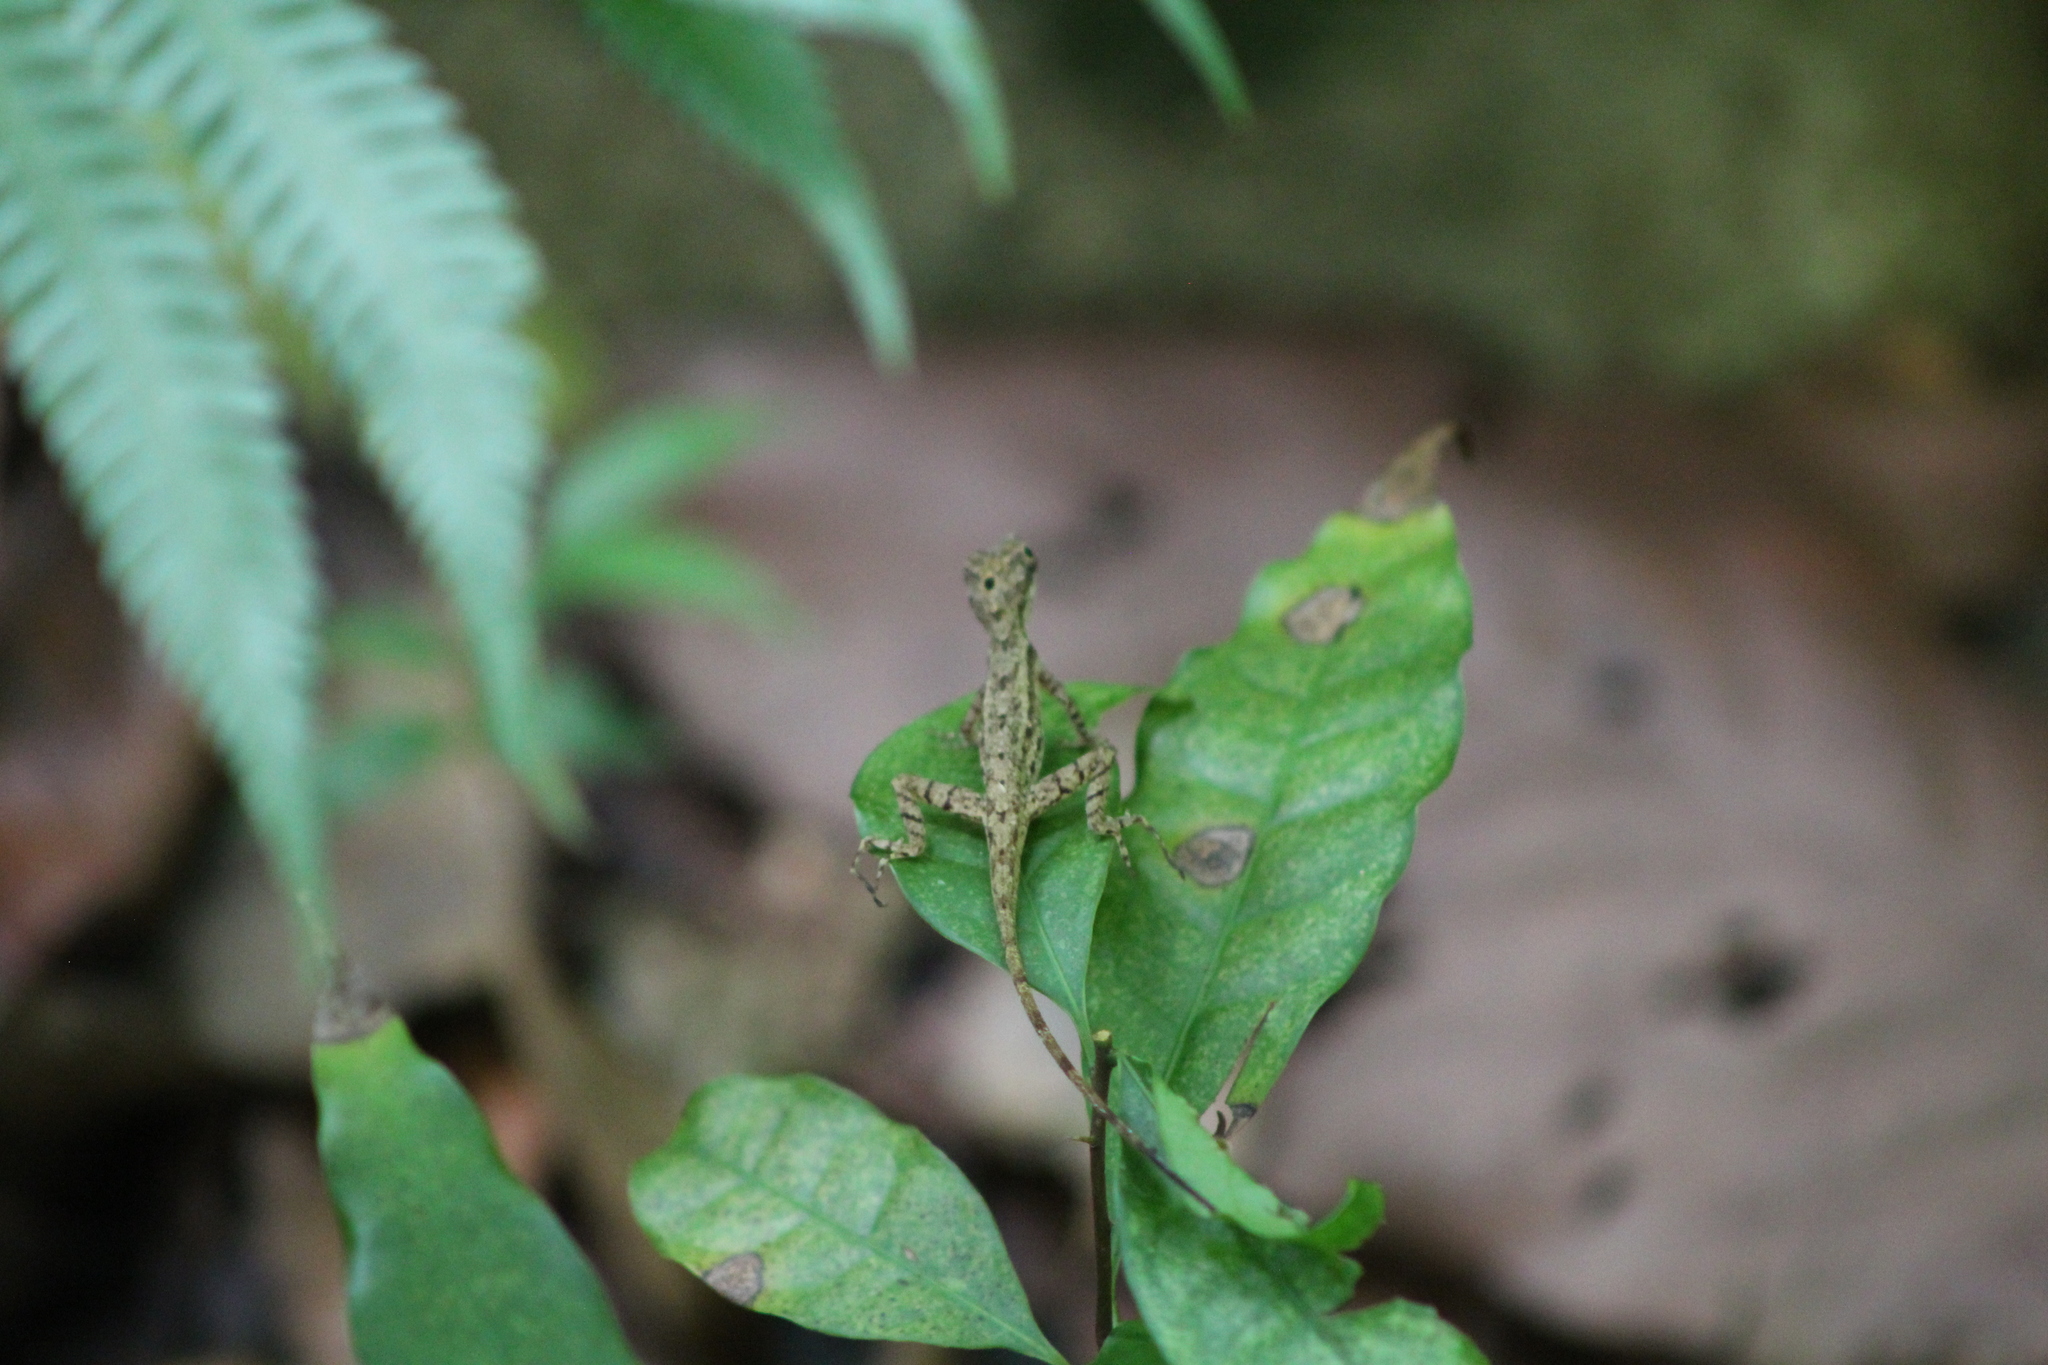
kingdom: Animalia
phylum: Chordata
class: Squamata
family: Dactyloidae
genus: Anolis
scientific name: Anolis limifrons
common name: Border anole
